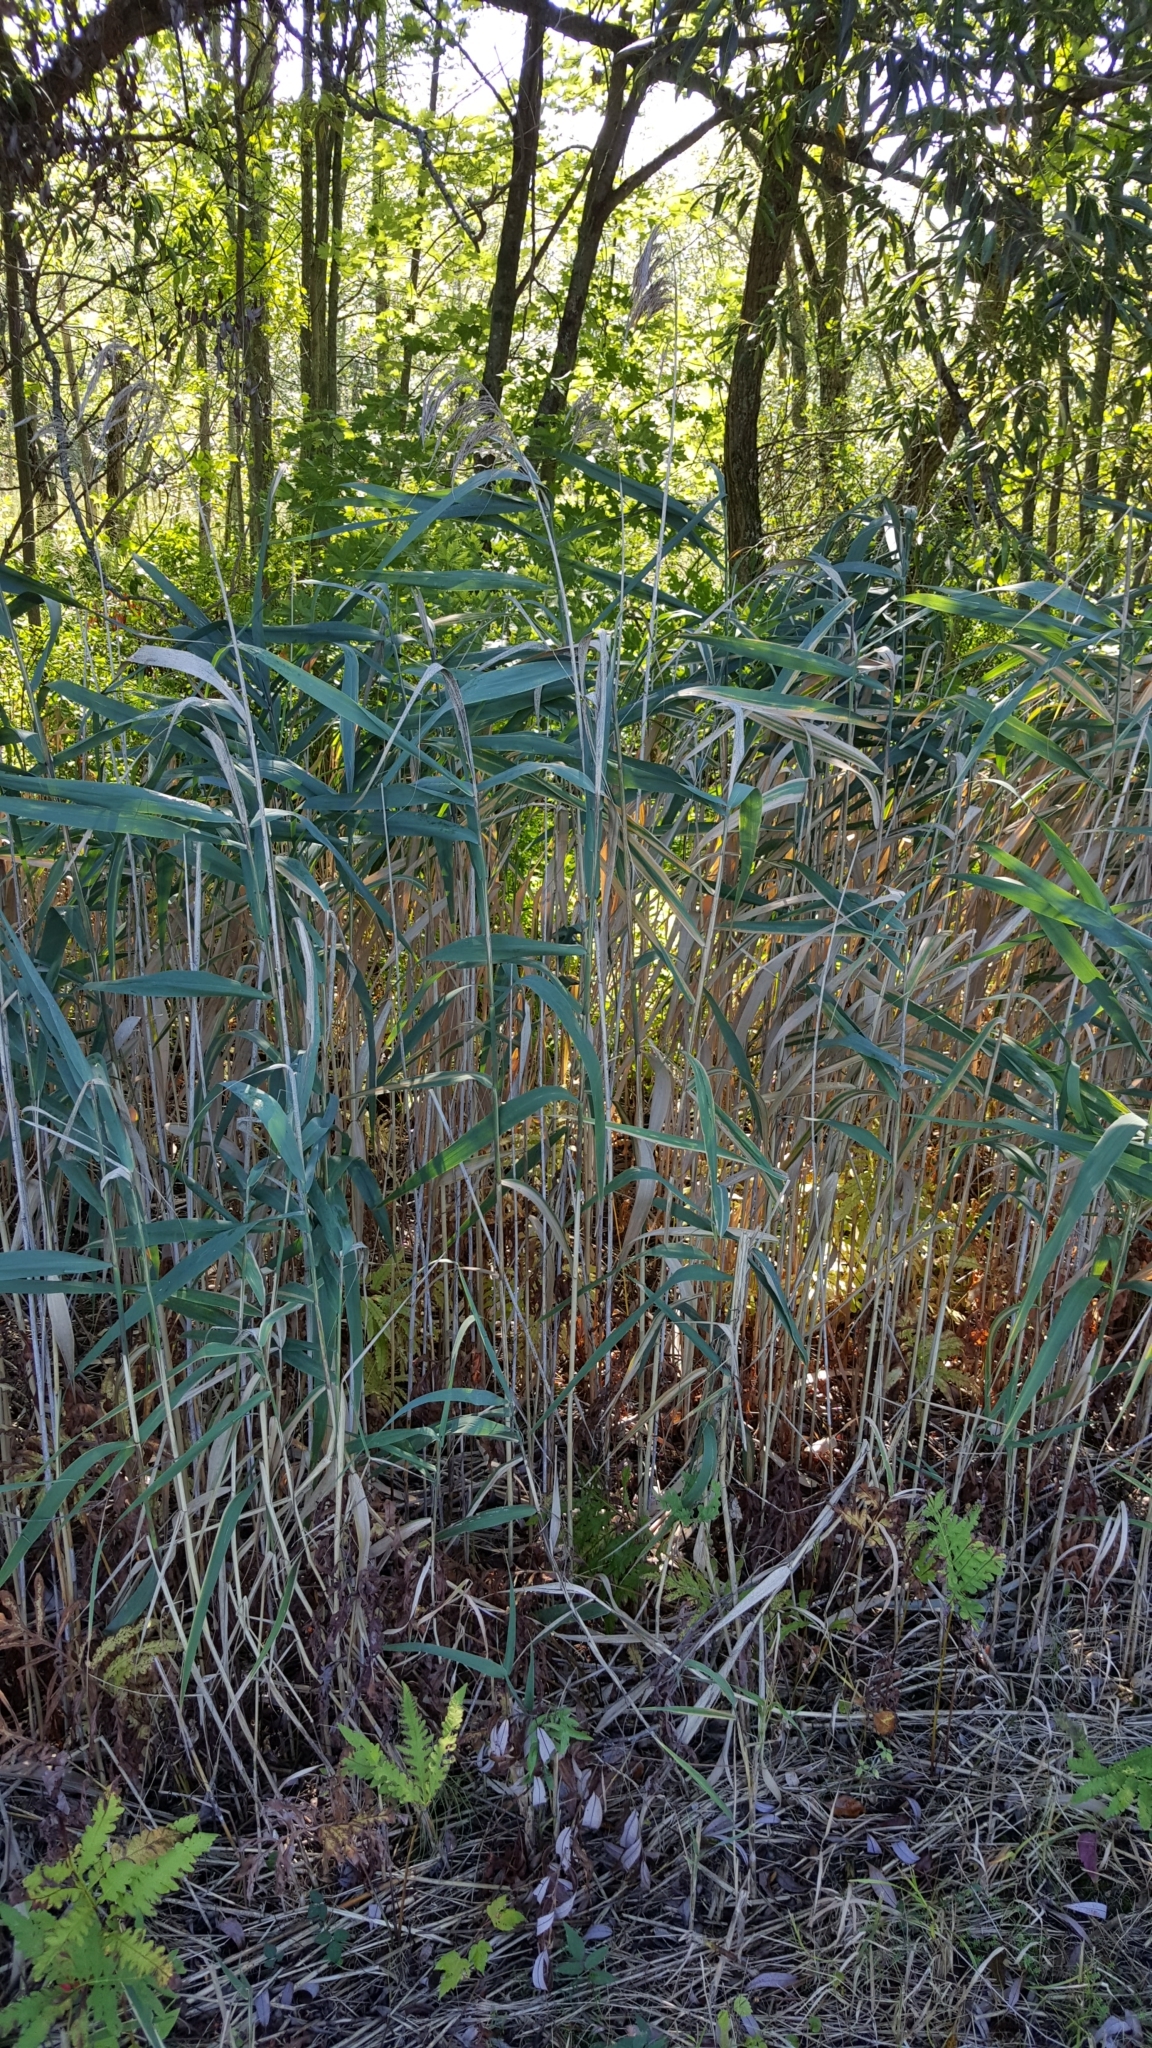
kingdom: Plantae
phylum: Tracheophyta
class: Liliopsida
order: Poales
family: Poaceae
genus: Phragmites
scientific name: Phragmites australis
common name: Common reed
